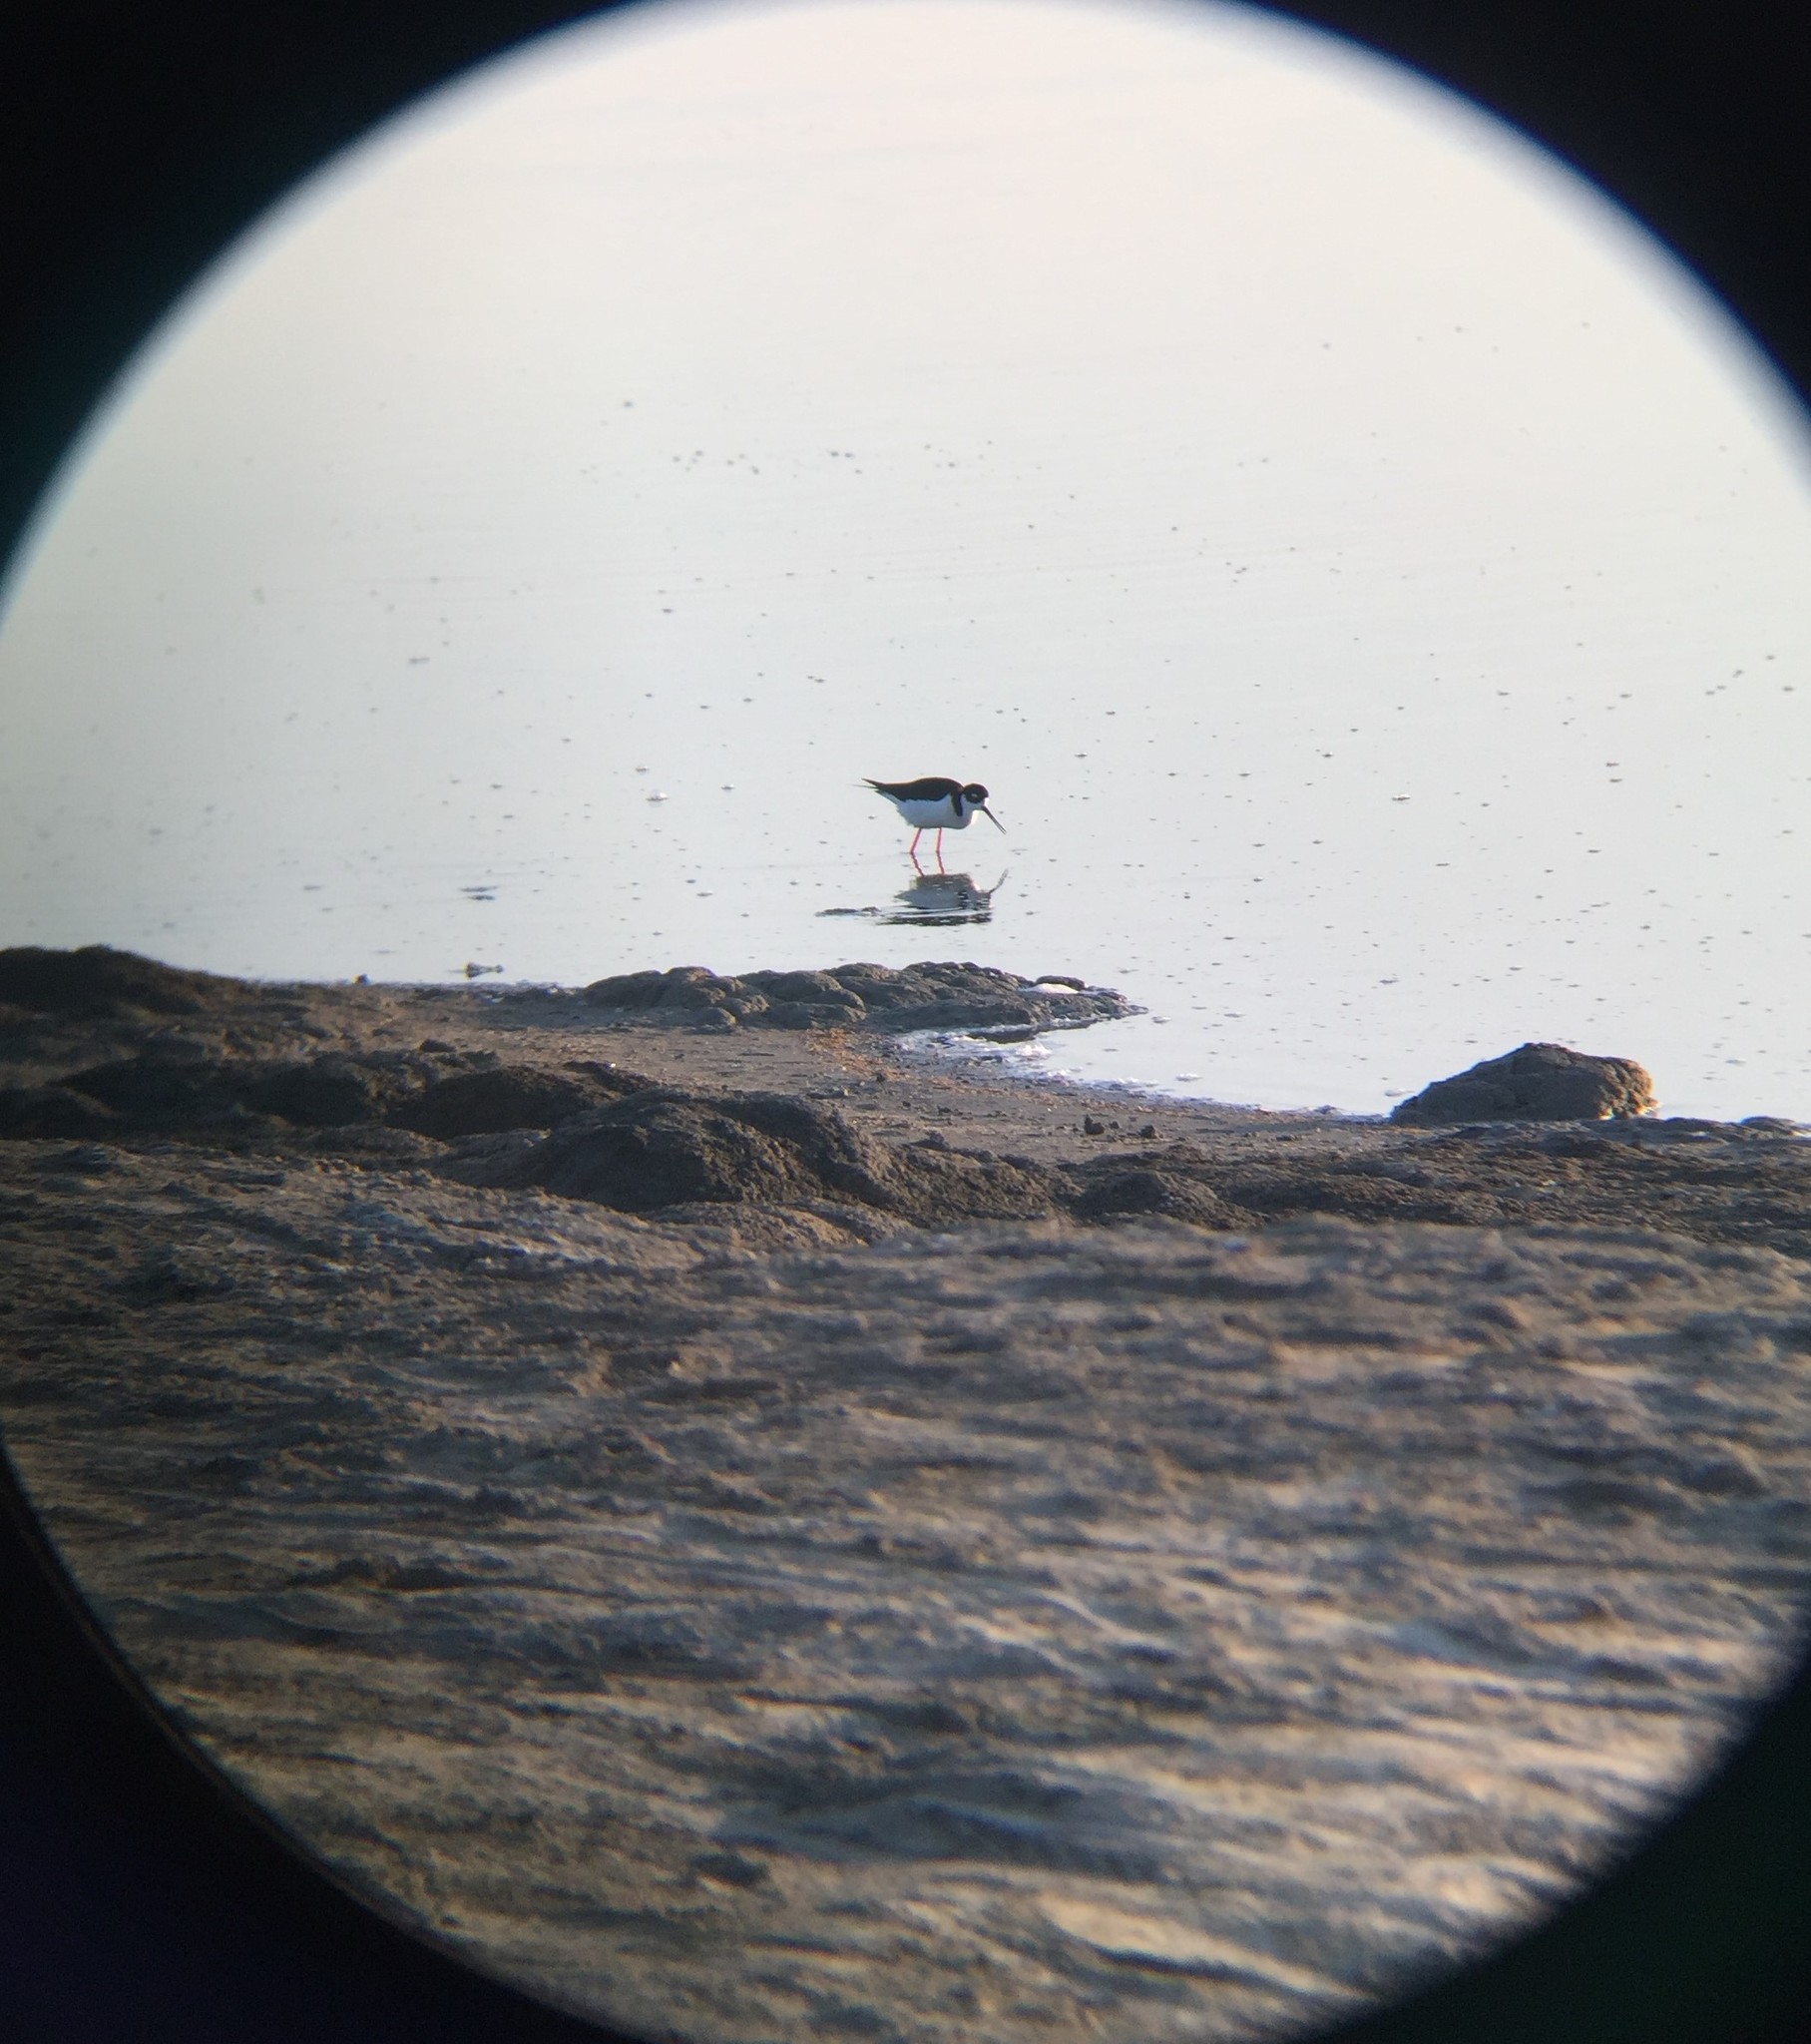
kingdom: Animalia
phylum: Chordata
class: Aves
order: Charadriiformes
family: Recurvirostridae
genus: Himantopus
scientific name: Himantopus mexicanus
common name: Black-necked stilt
